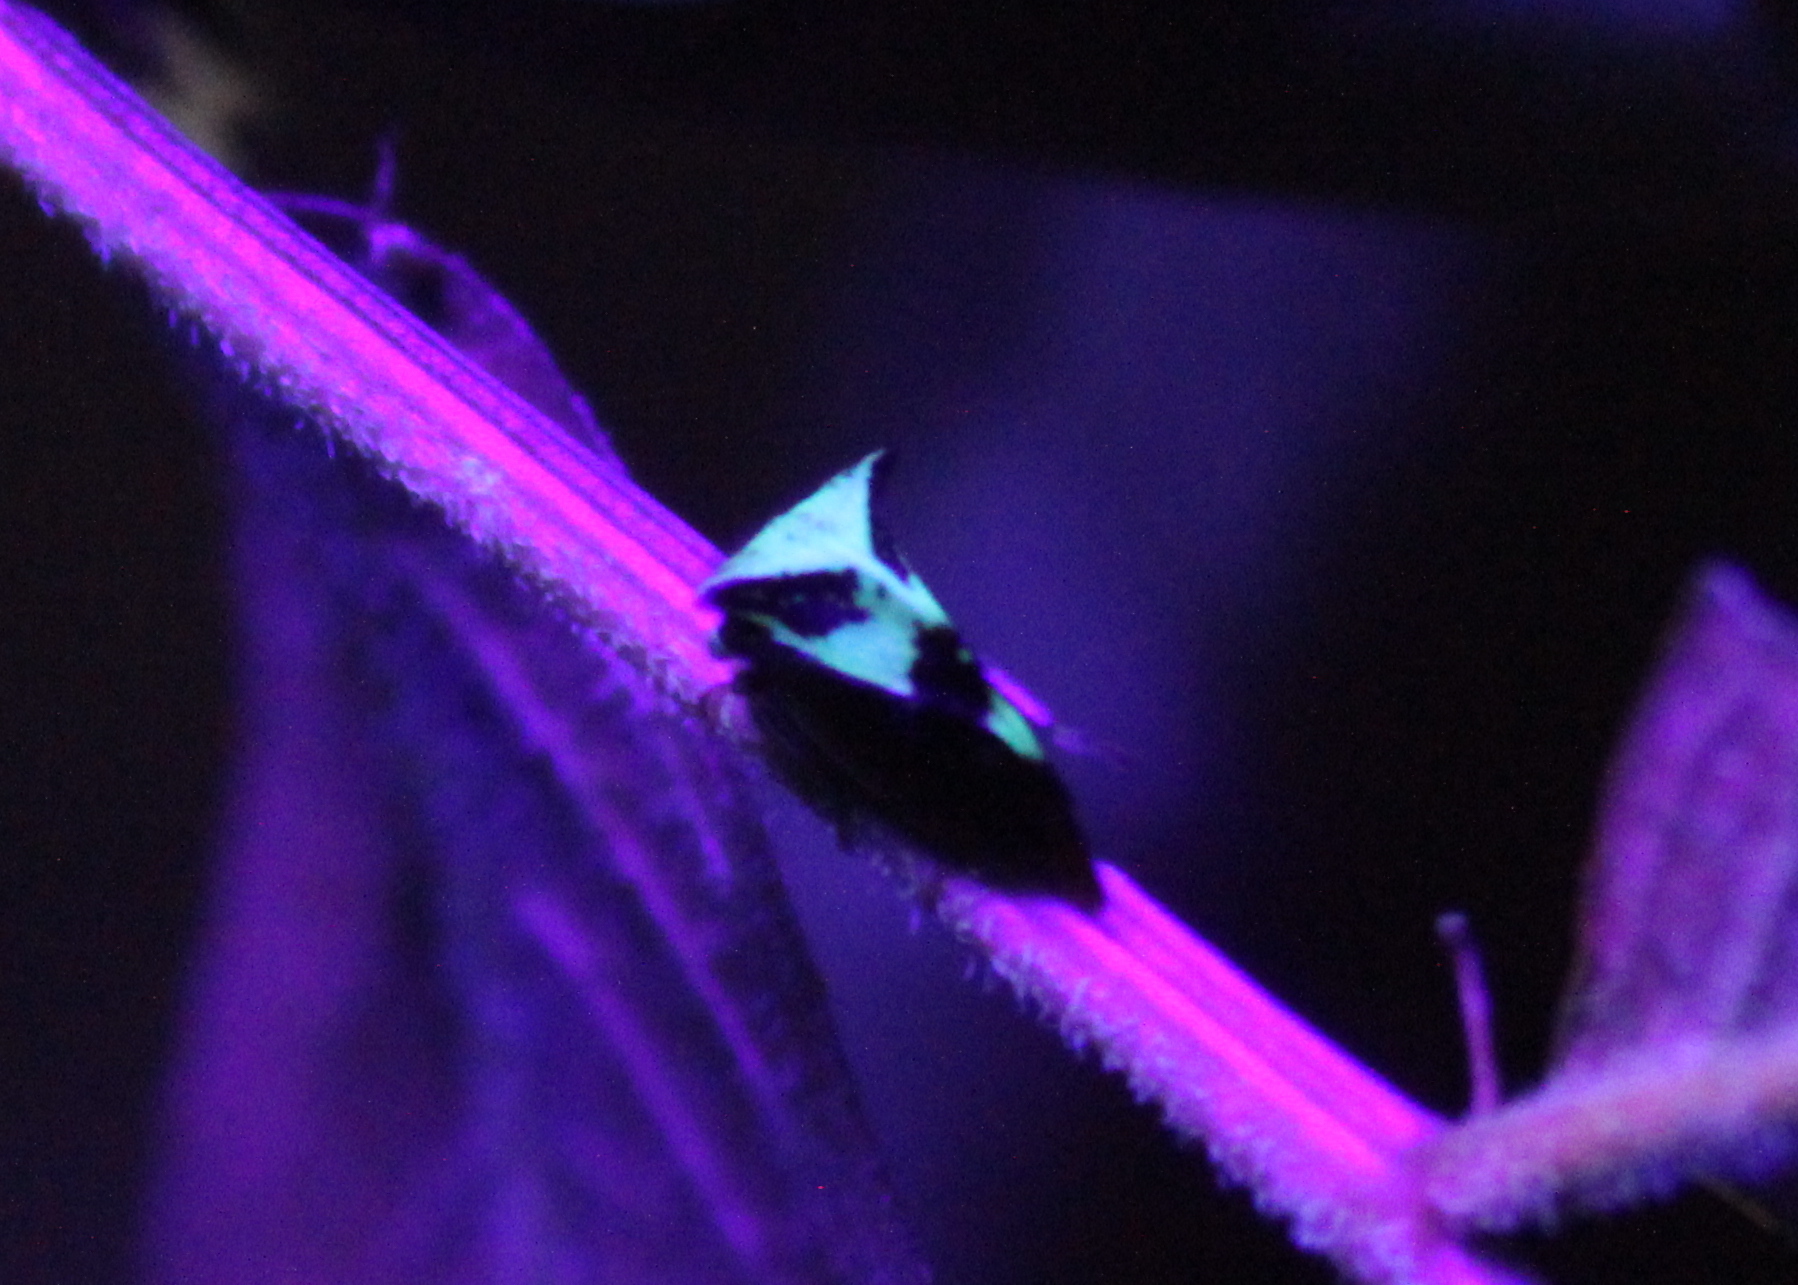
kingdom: Animalia
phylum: Arthropoda
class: Insecta
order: Hemiptera
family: Membracidae
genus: Stictocephala
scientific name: Stictocephala diceros
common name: Two-horned treehopper
